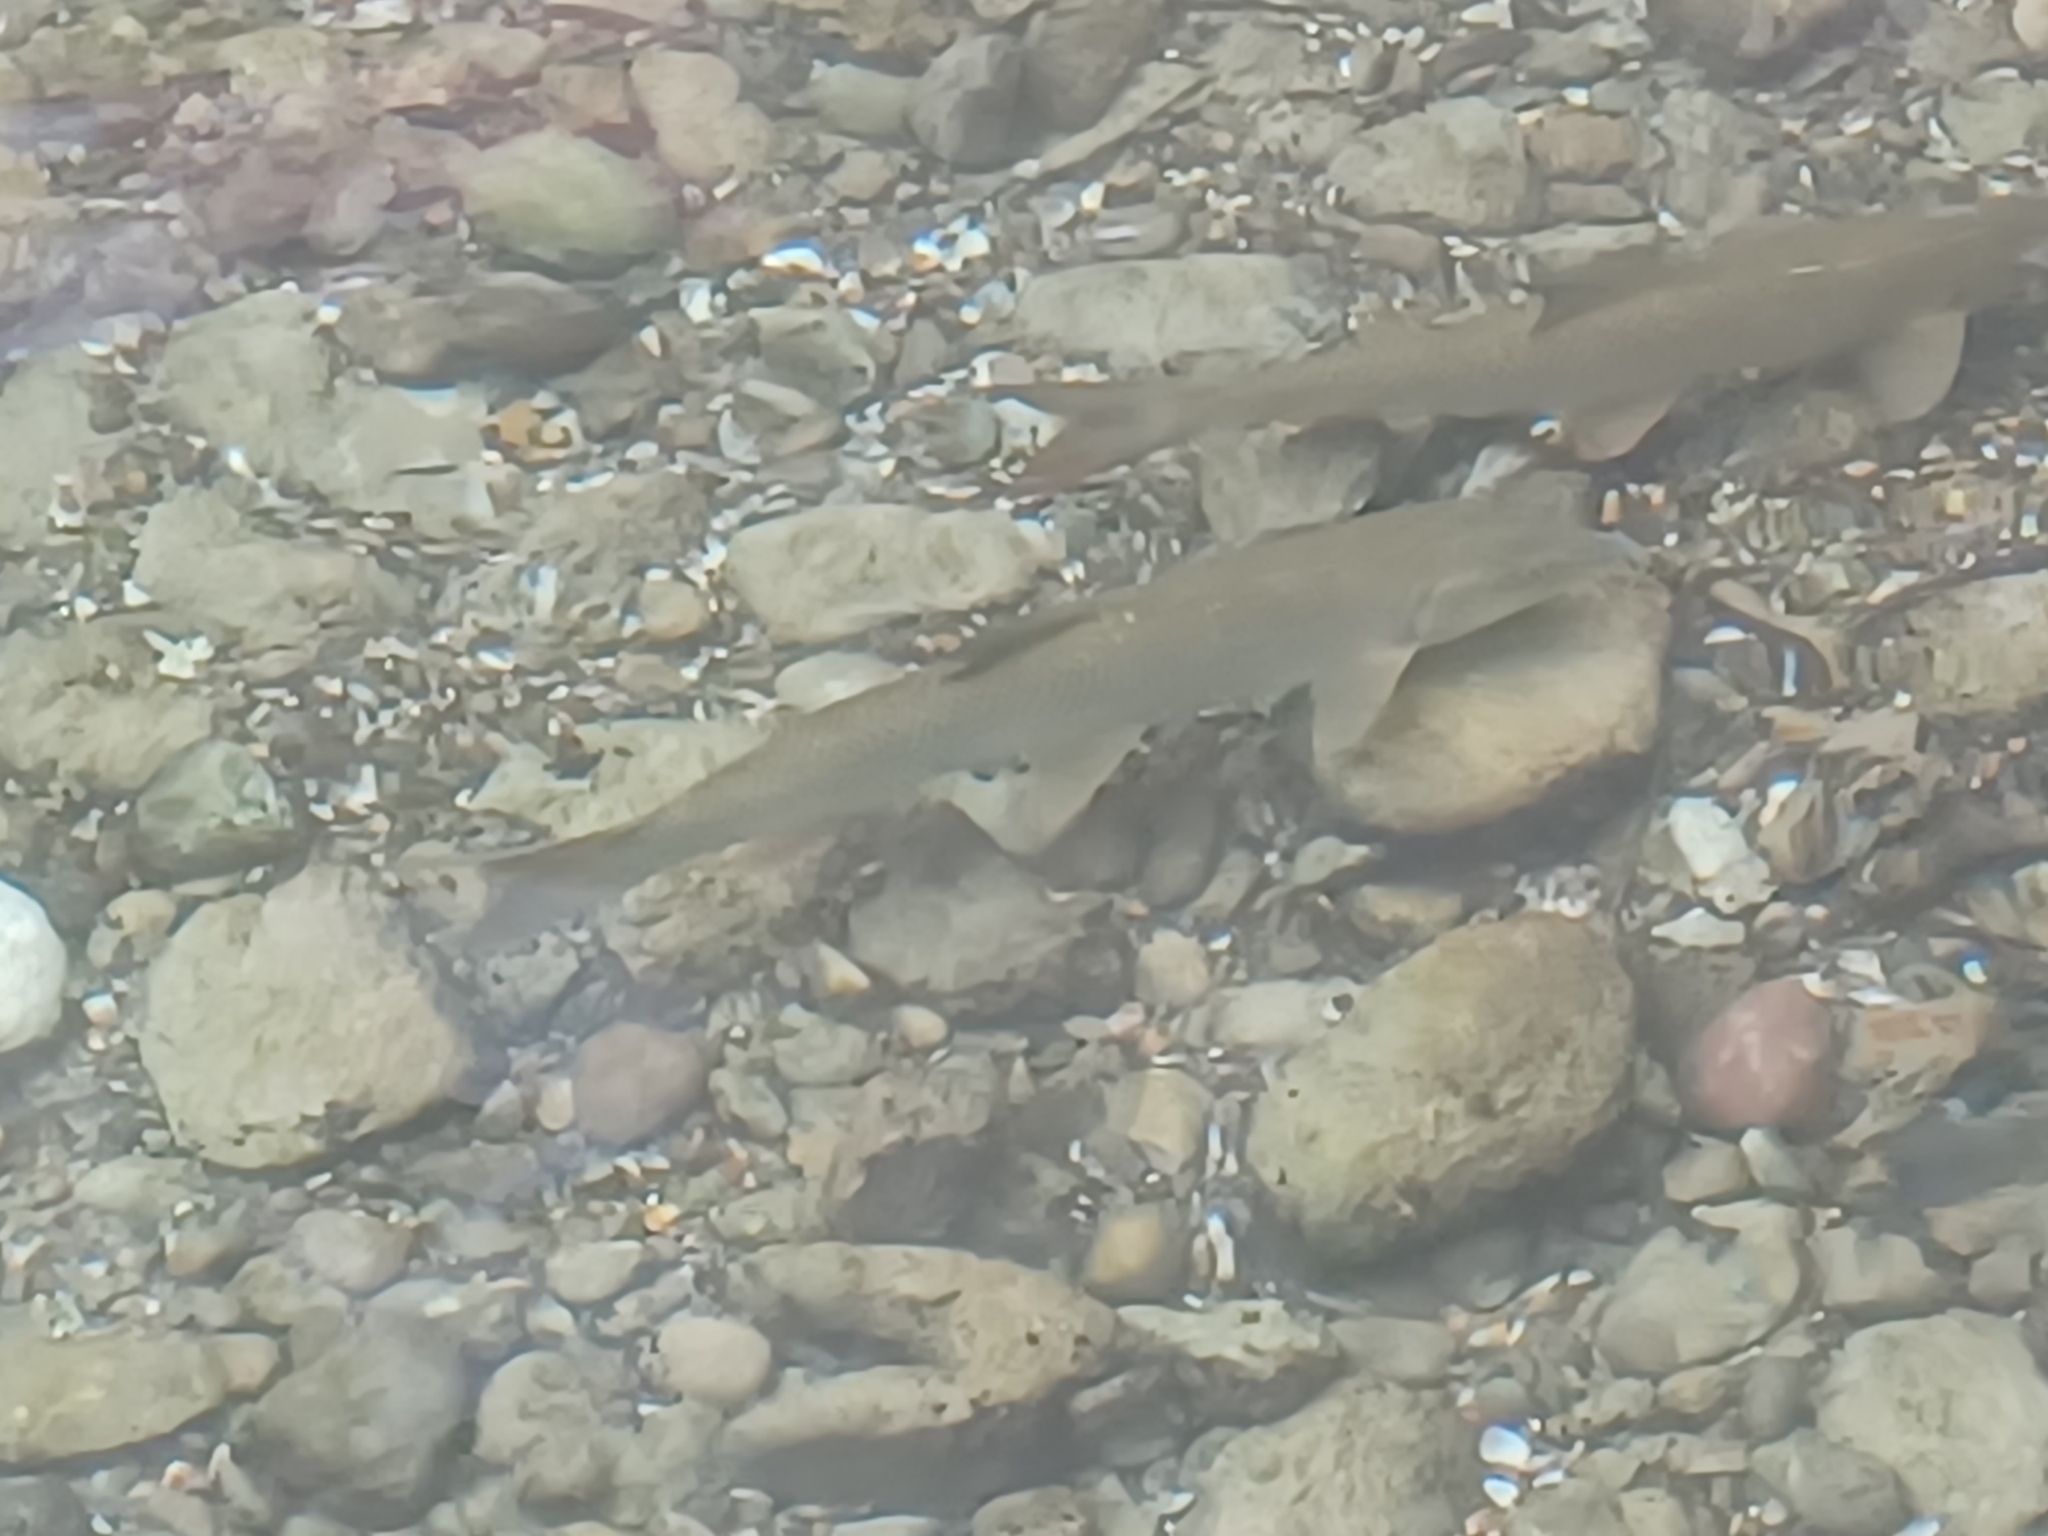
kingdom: Animalia
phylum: Chordata
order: Cypriniformes
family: Cyprinidae
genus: Barbus
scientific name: Barbus barbus
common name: Barbel
